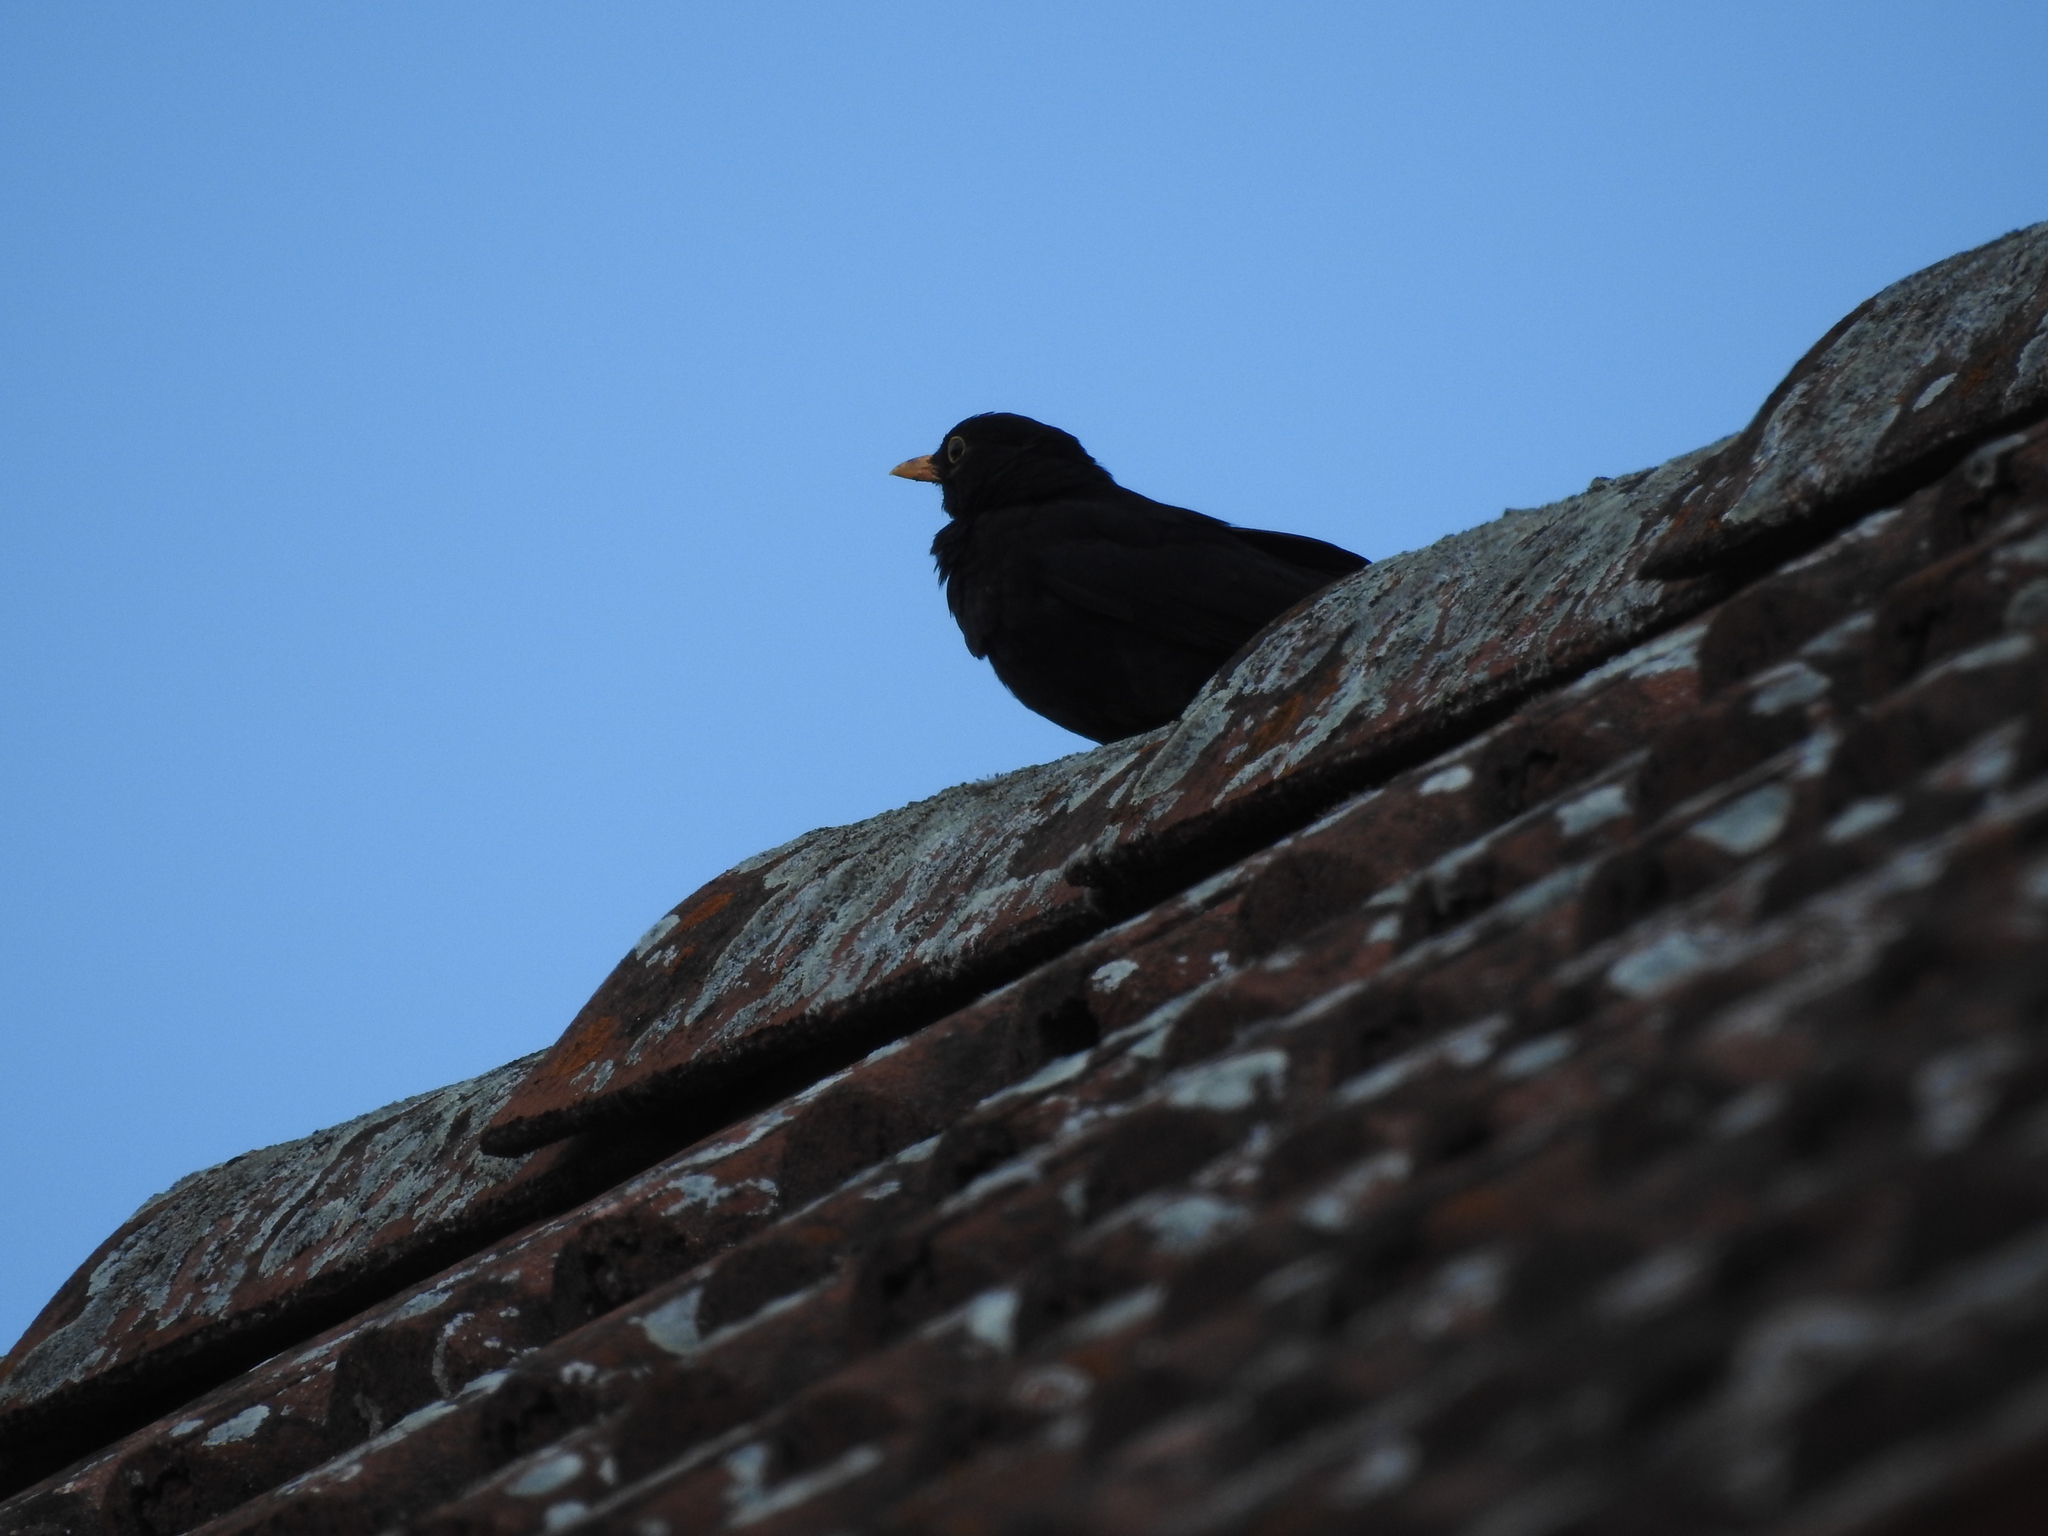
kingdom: Animalia
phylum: Chordata
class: Aves
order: Passeriformes
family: Turdidae
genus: Turdus
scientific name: Turdus merula
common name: Common blackbird
